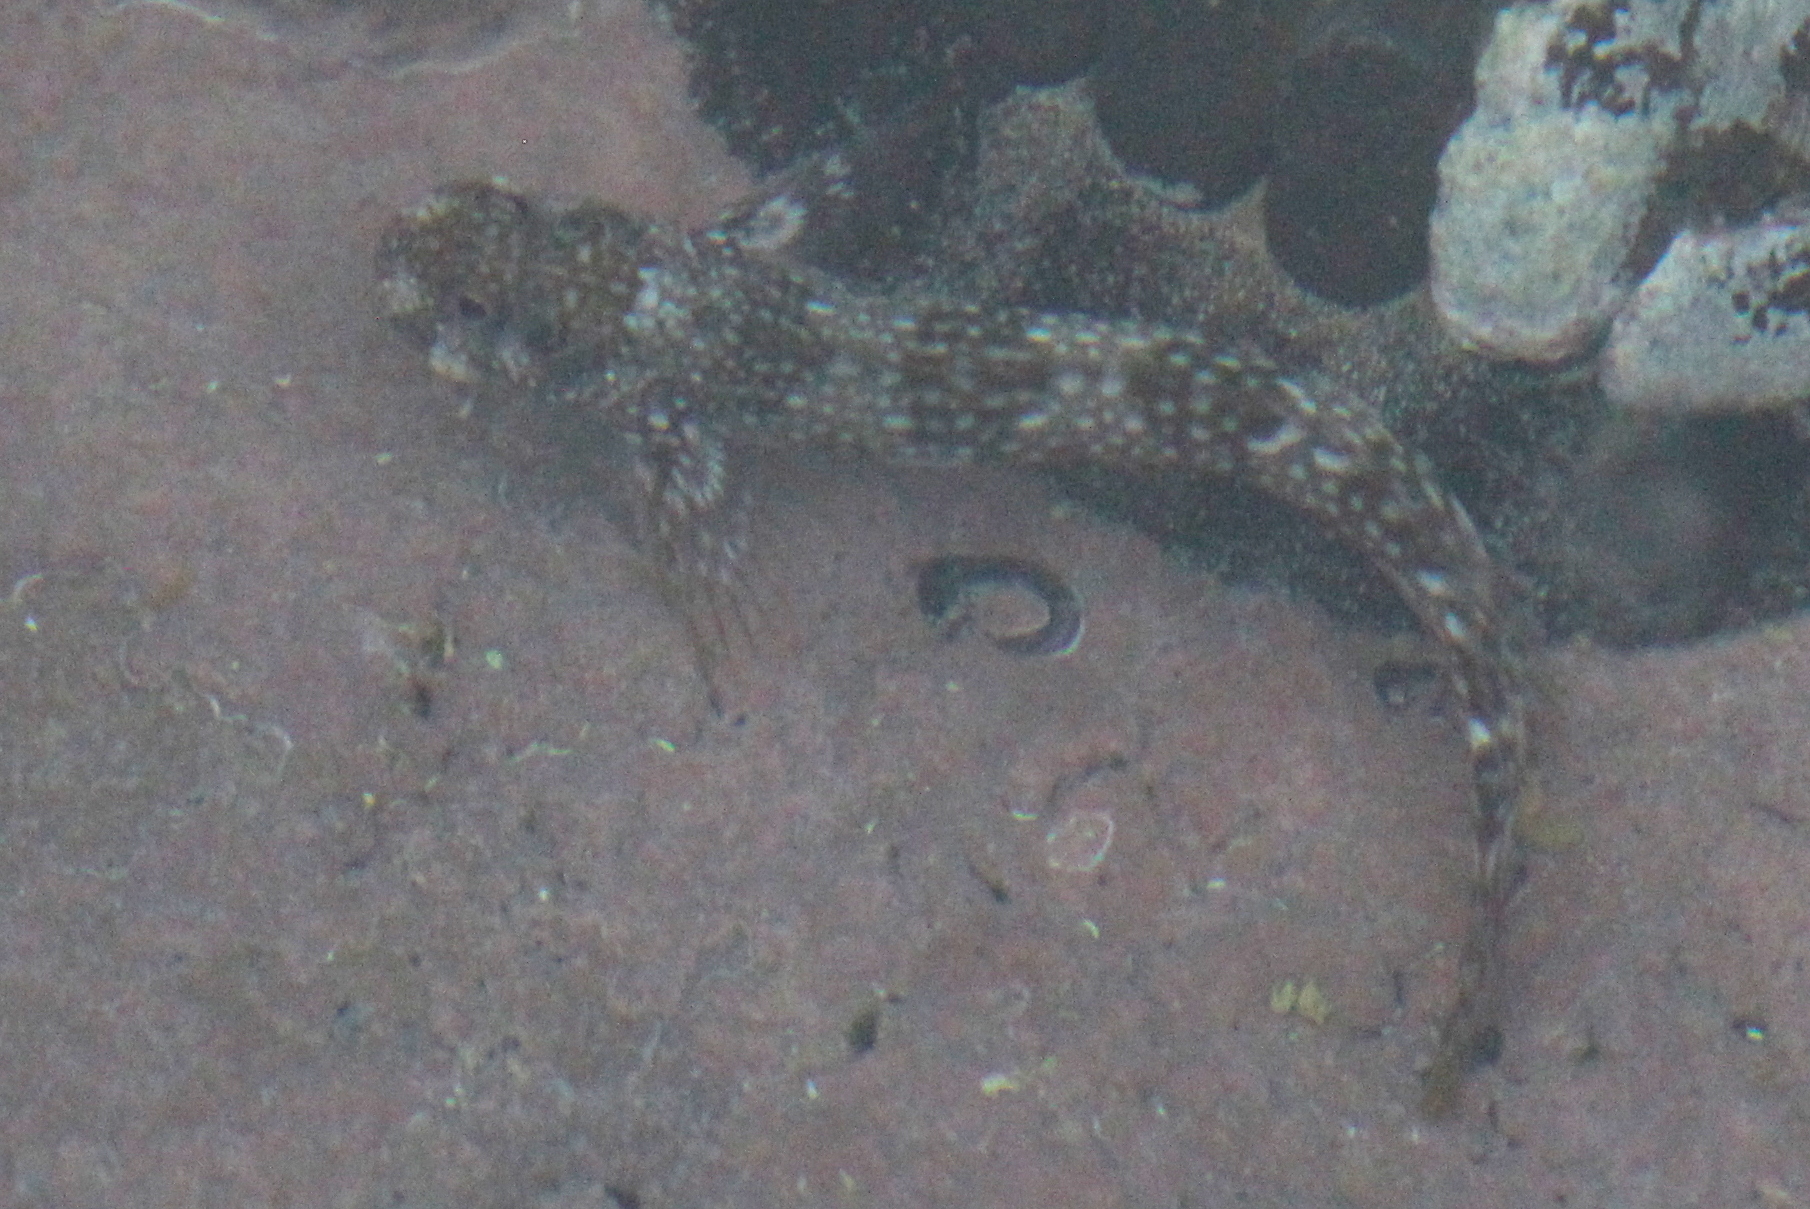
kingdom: Animalia
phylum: Chordata
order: Perciformes
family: Blenniidae
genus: Istiblennius
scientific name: Istiblennius spilotus
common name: Spotted rockskipper
